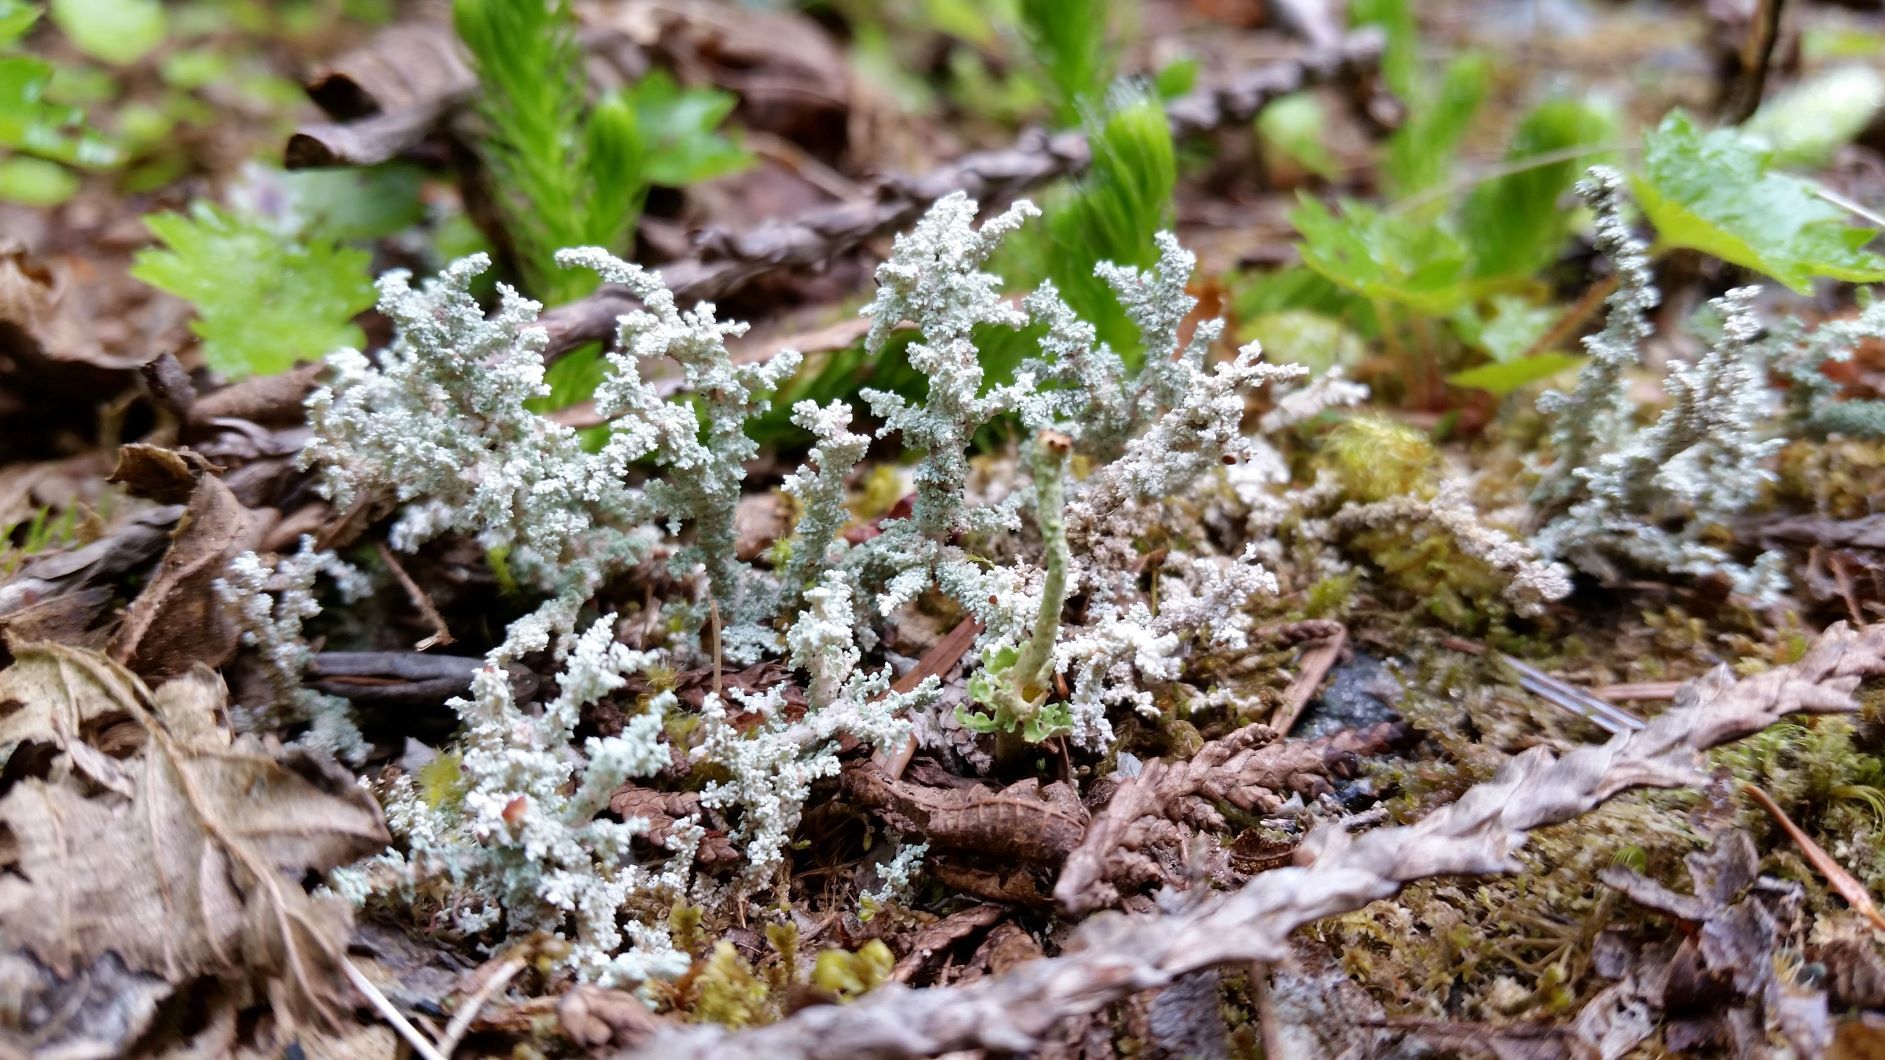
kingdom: Fungi
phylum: Ascomycota
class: Lecanoromycetes
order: Lecanorales
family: Cladoniaceae
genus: Cladonia
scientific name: Cladonia squamosa
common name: Dragon horn
